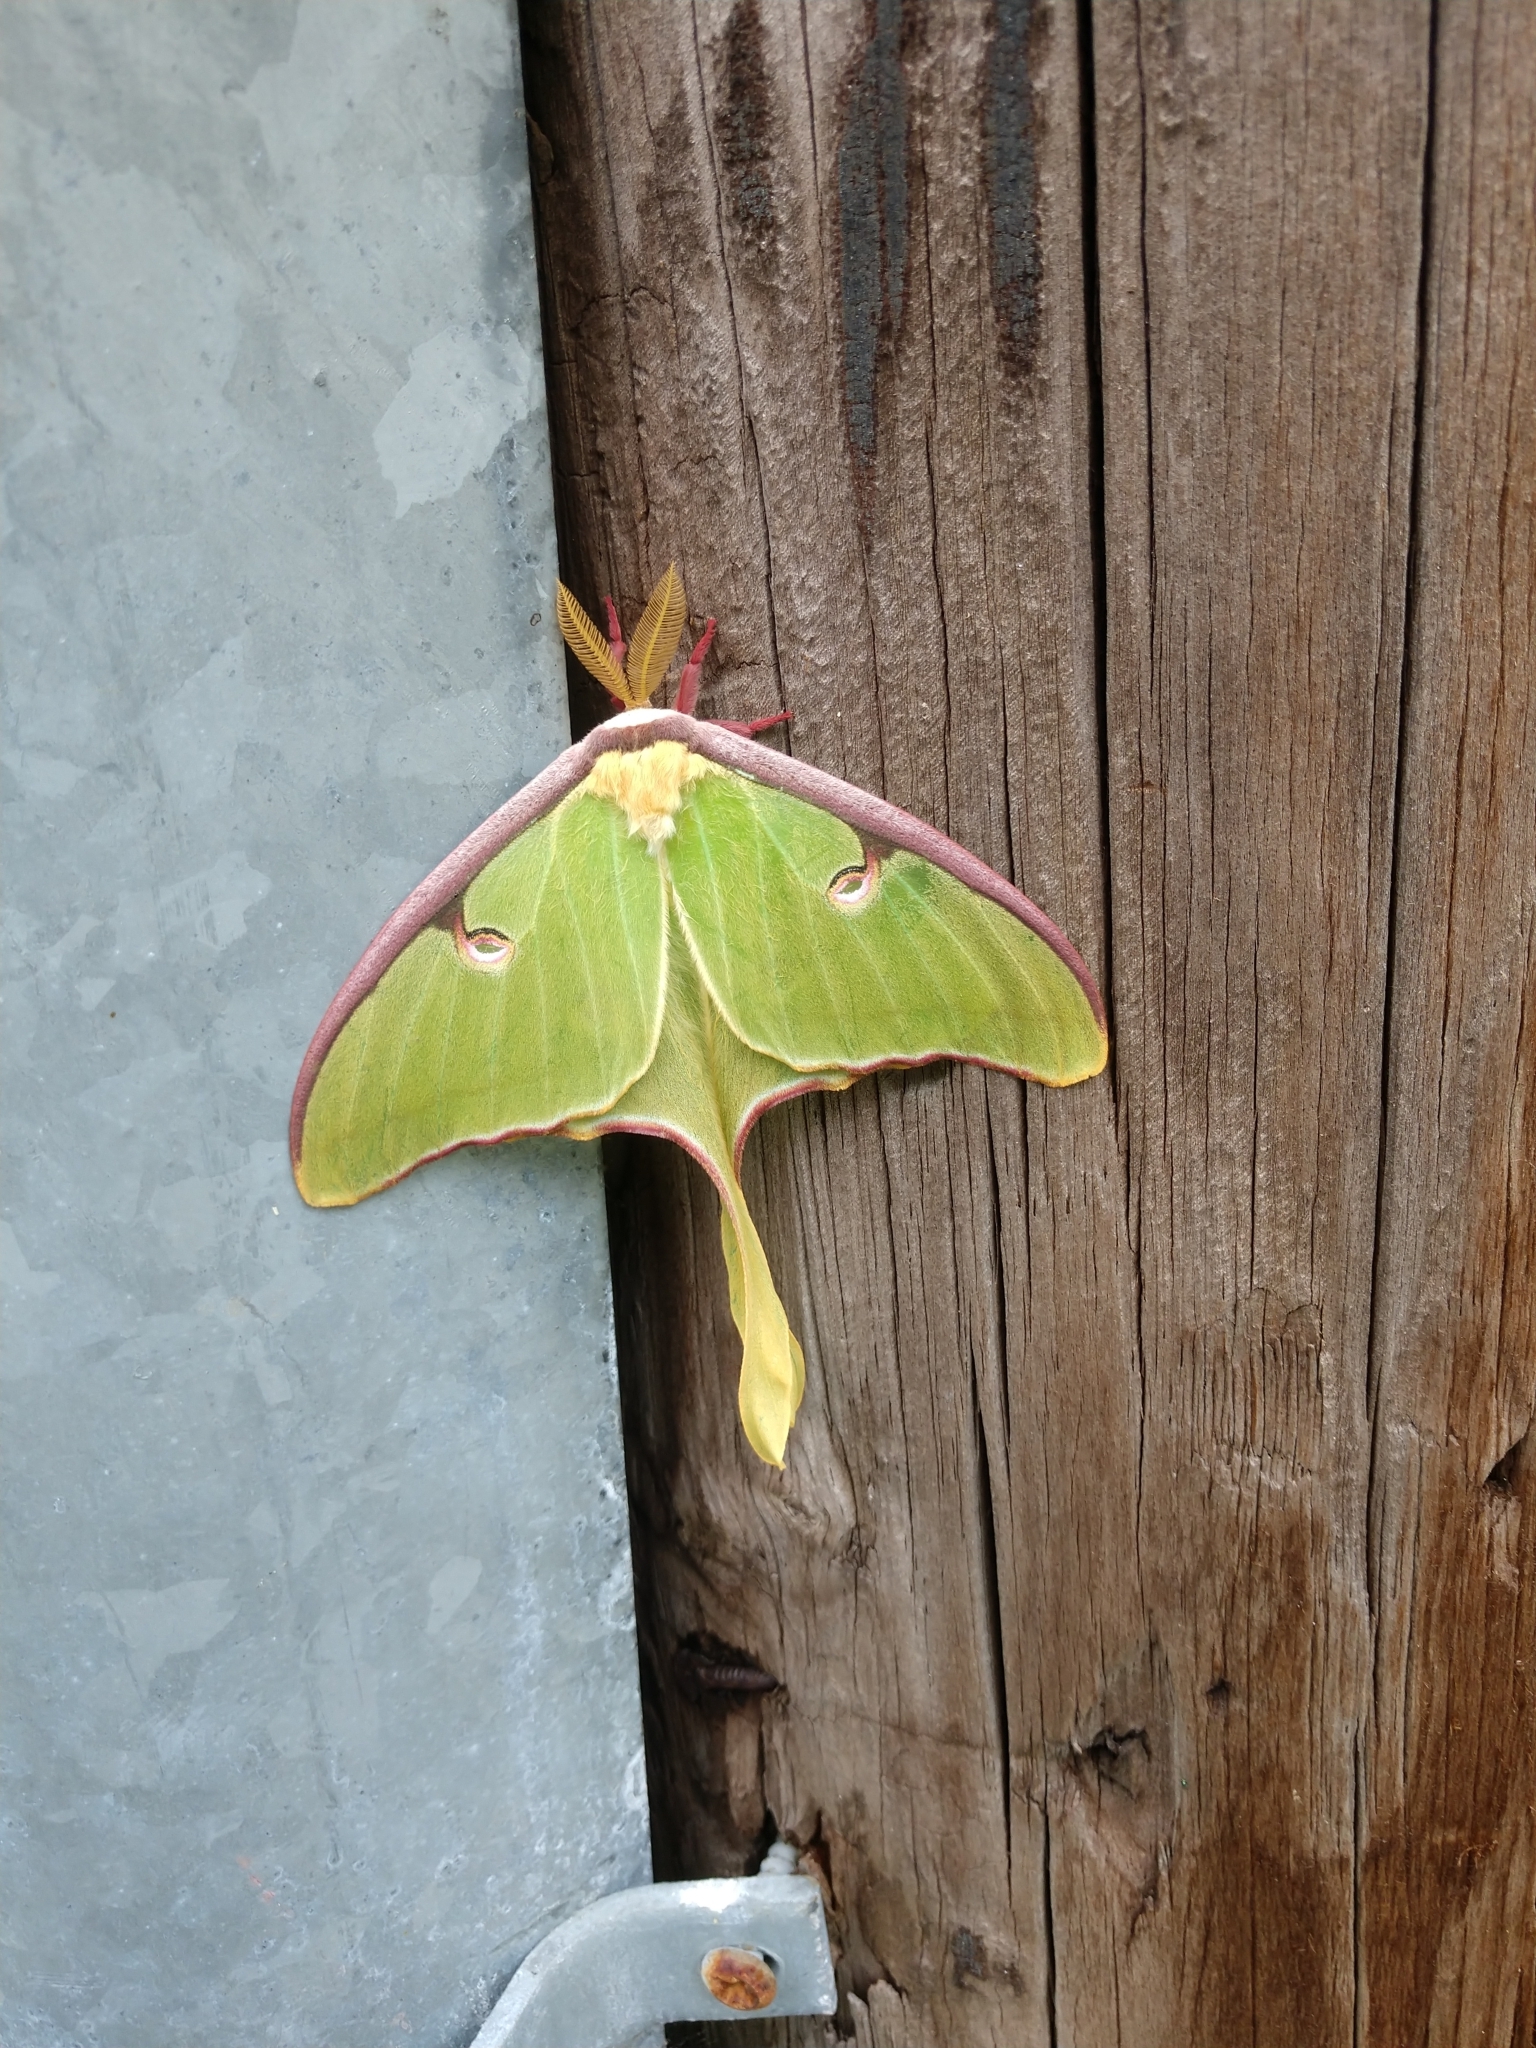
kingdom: Animalia
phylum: Arthropoda
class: Insecta
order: Lepidoptera
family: Saturniidae
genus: Actias
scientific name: Actias luna
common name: Luna moth
